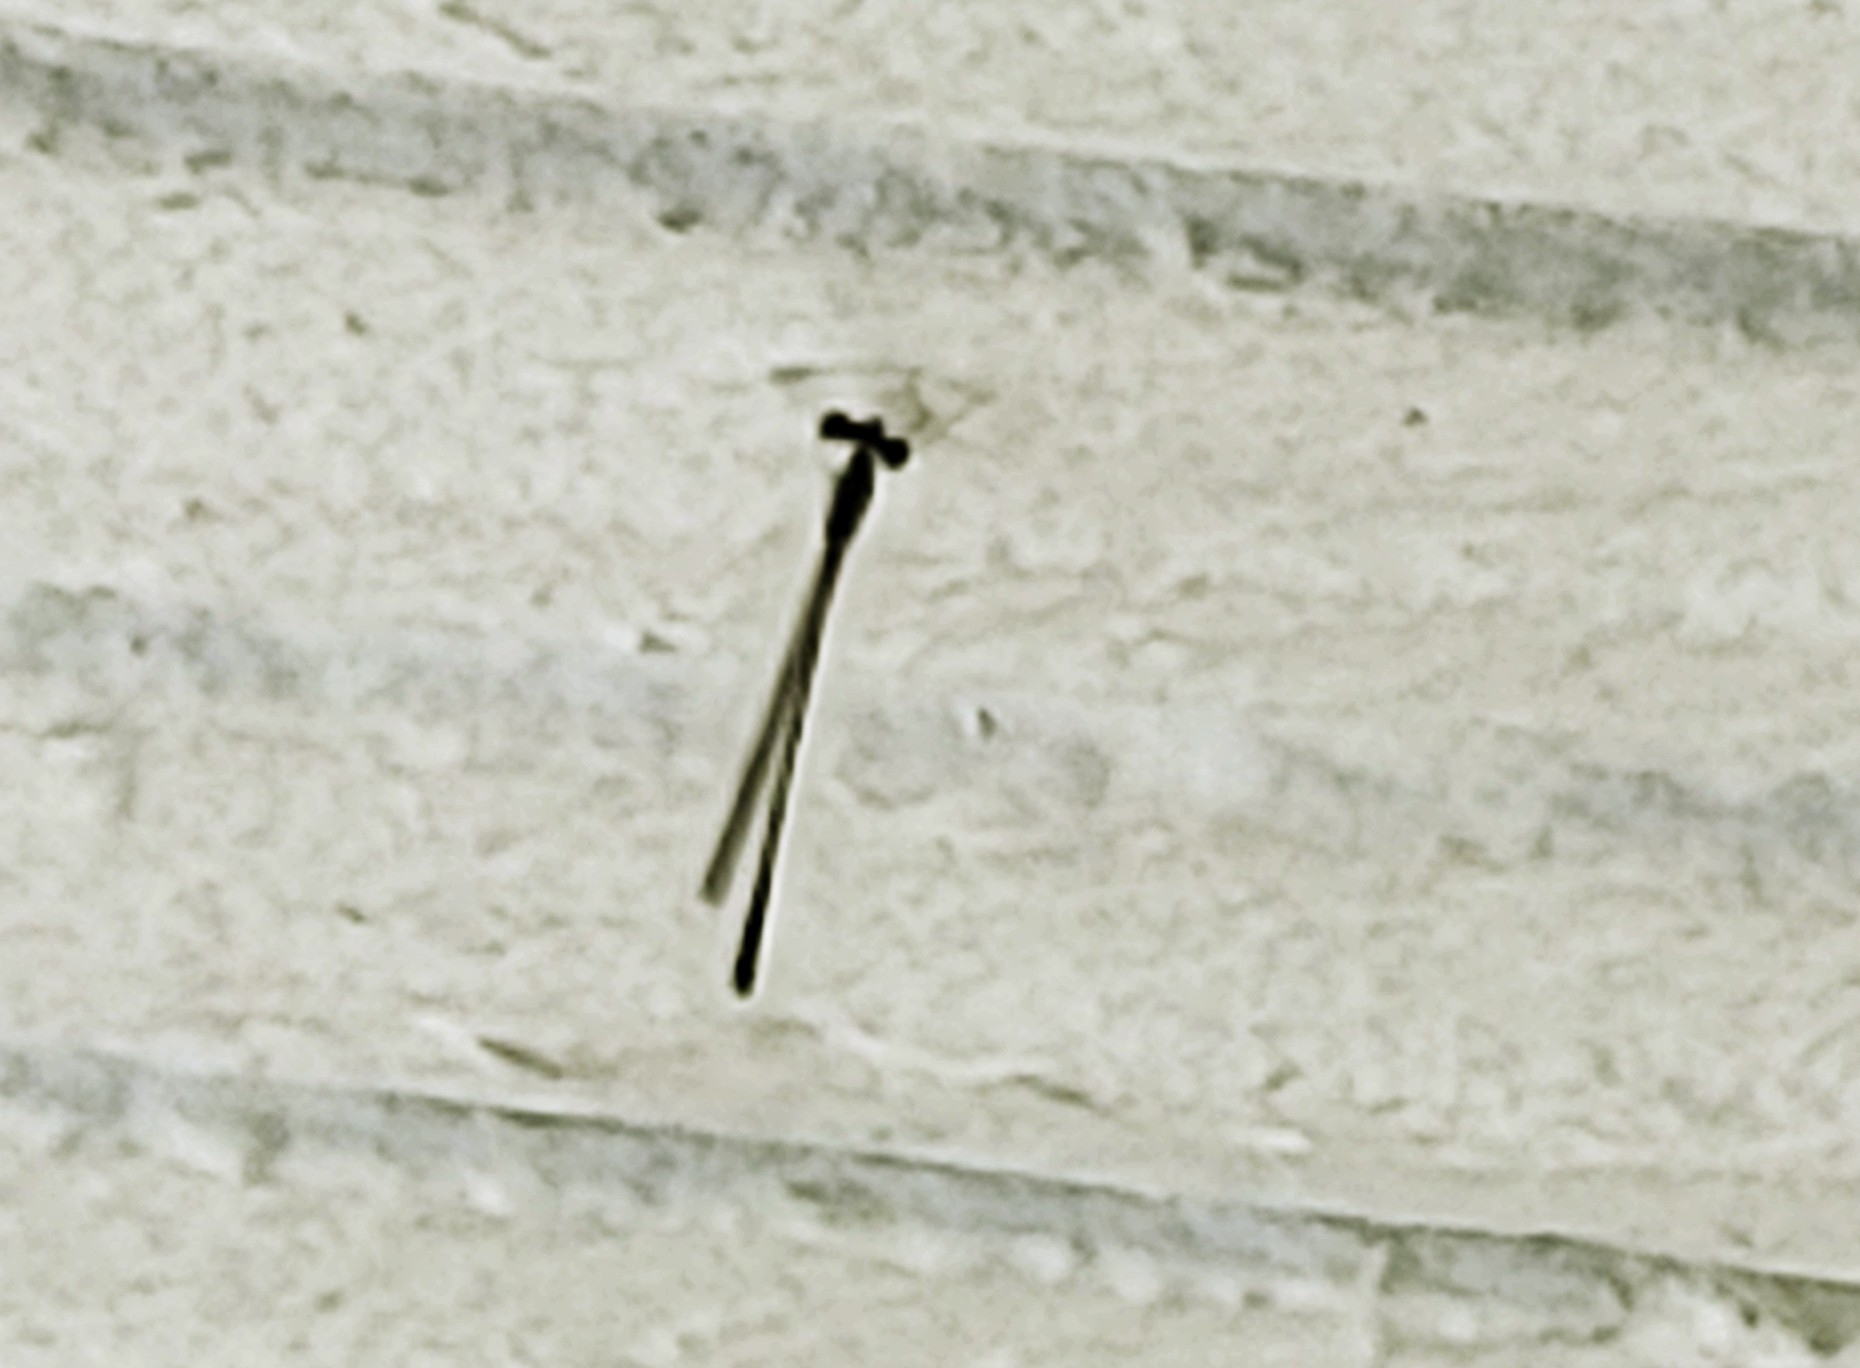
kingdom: Animalia
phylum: Arthropoda
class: Insecta
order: Odonata
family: Coenagrionidae
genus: Nehalennia
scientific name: Nehalennia pallidula
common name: Everglades sprite
